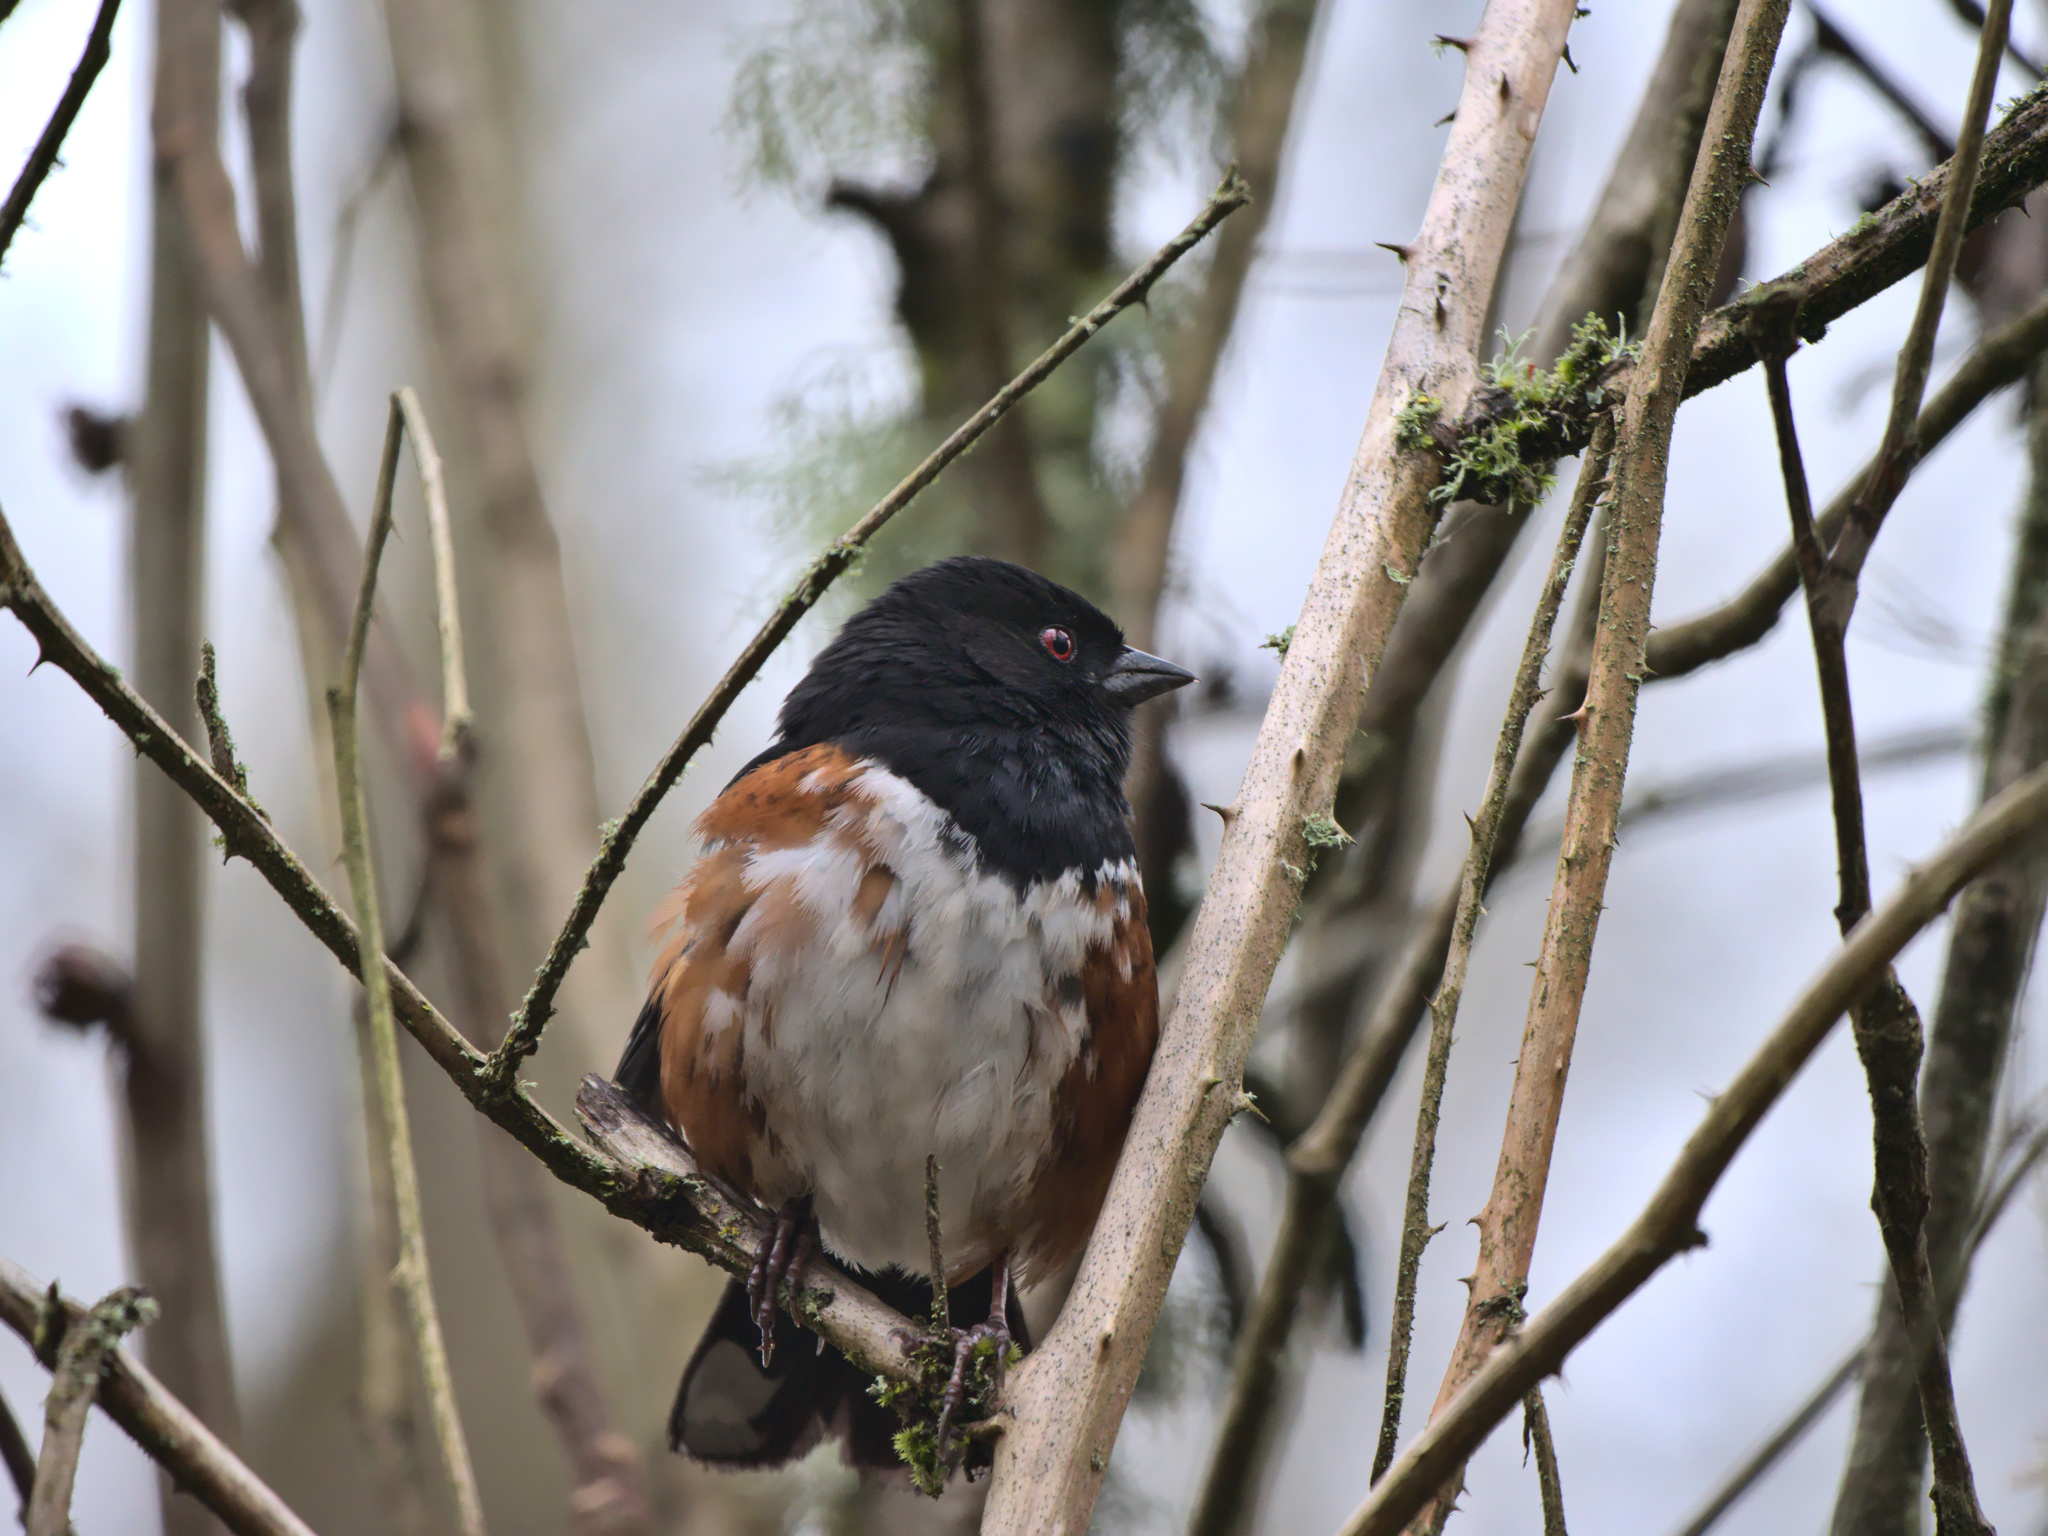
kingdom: Animalia
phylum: Chordata
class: Aves
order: Passeriformes
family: Passerellidae
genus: Pipilo
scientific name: Pipilo maculatus
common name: Spotted towhee
